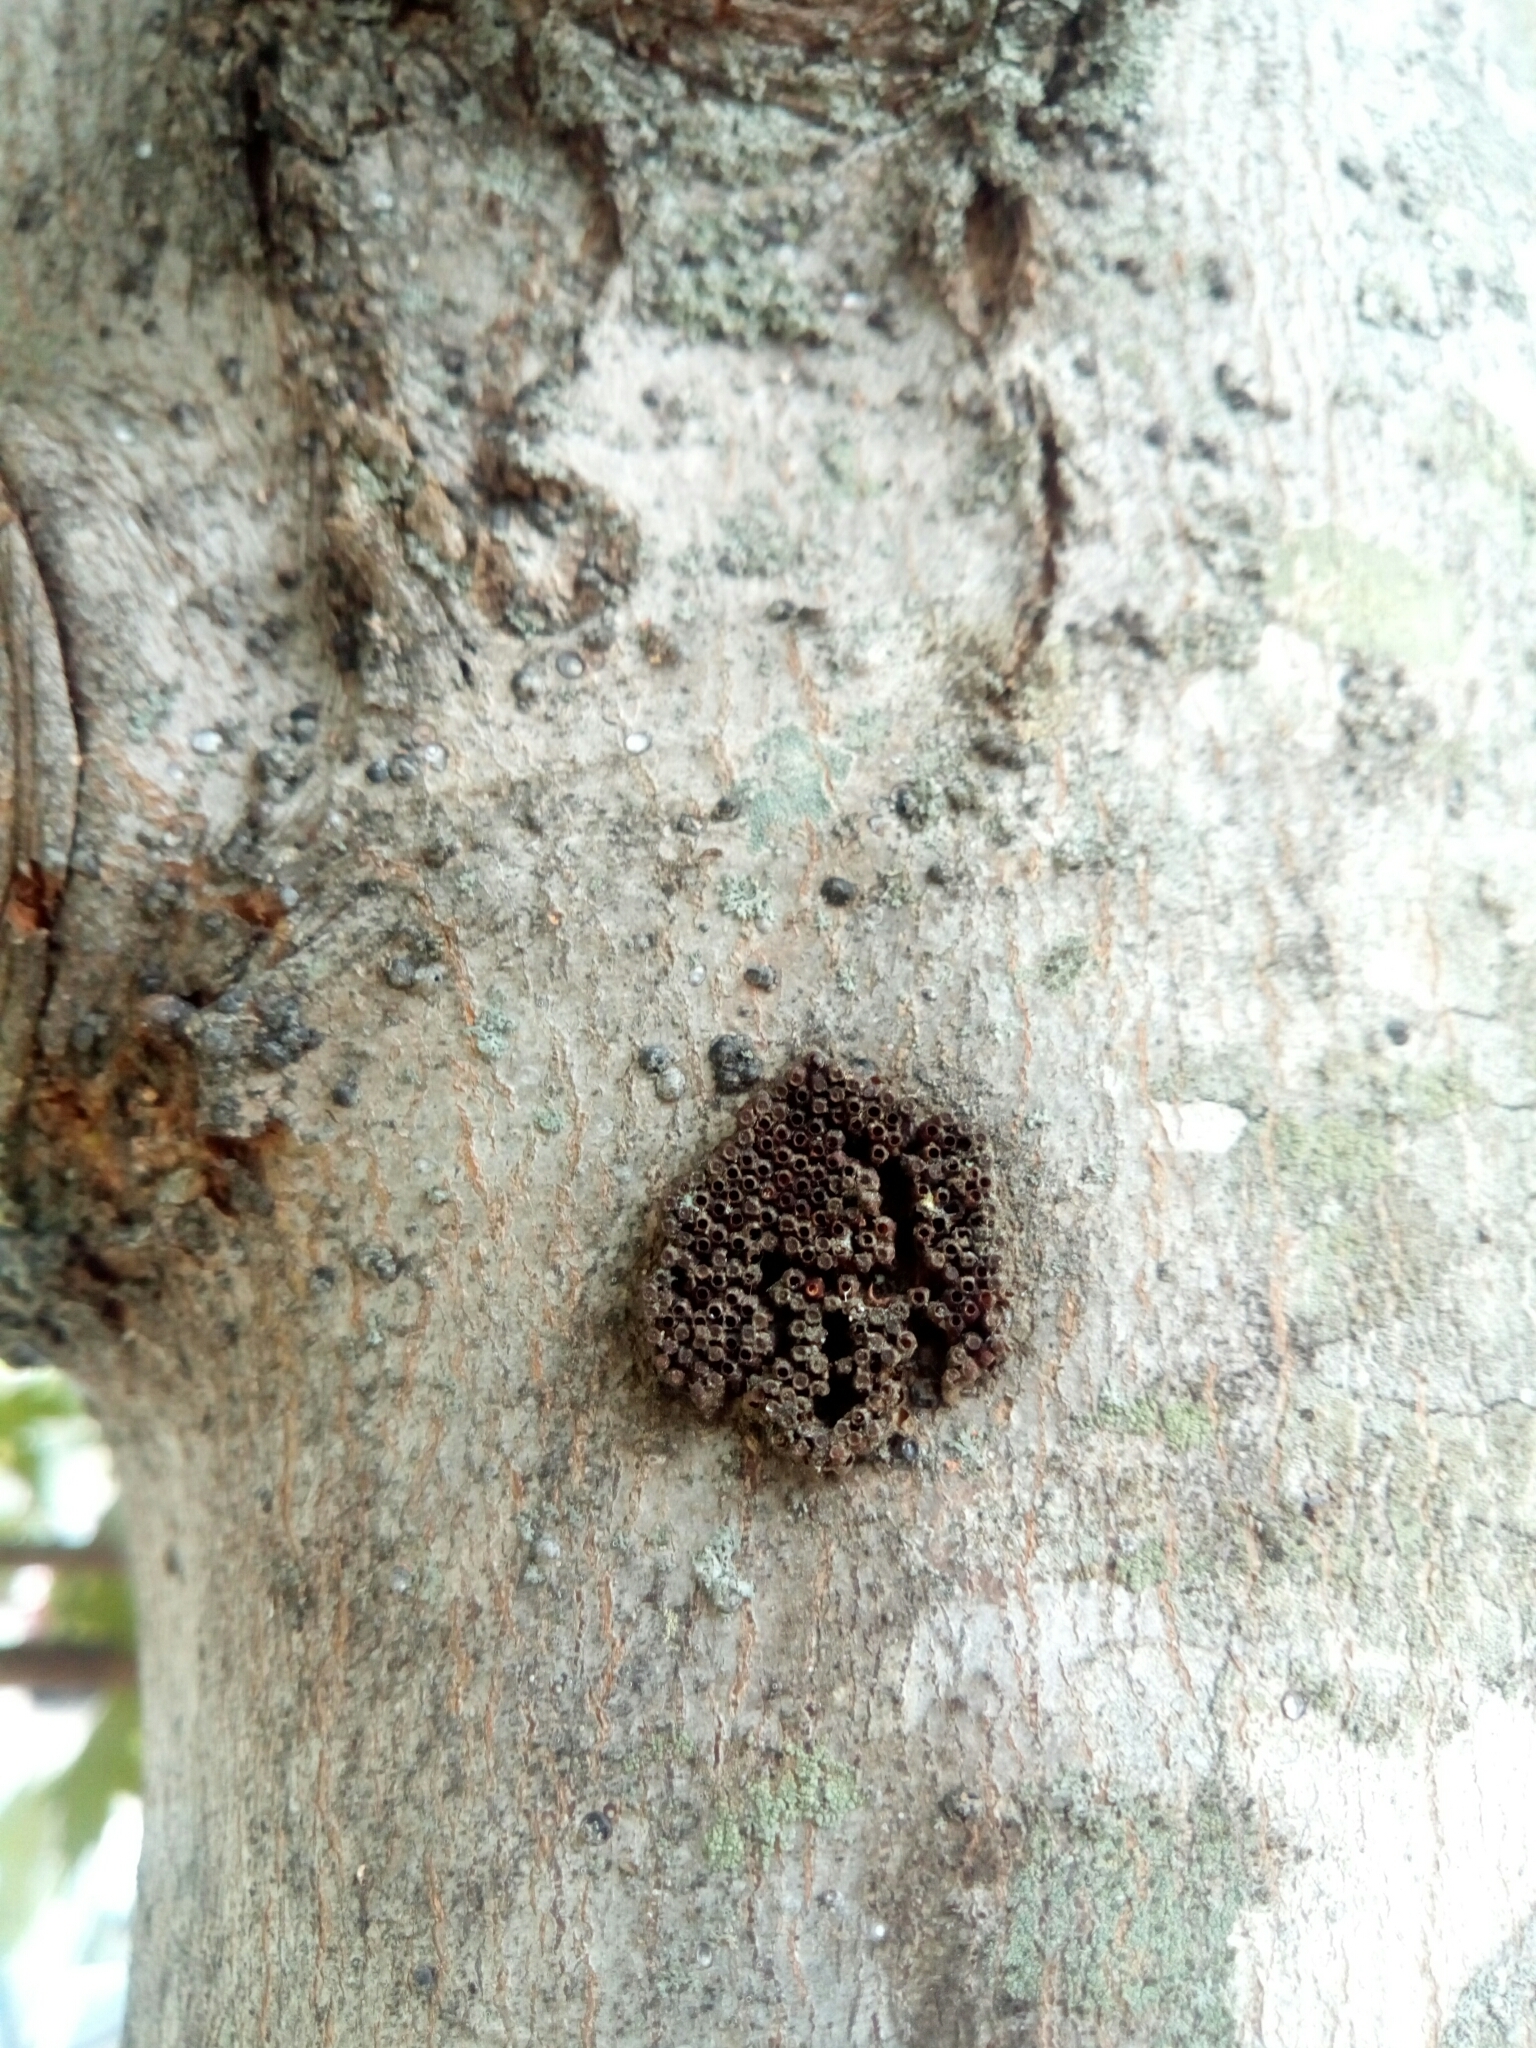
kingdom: Animalia
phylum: Arthropoda
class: Insecta
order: Hemiptera
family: Reduviidae
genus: Arilus
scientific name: Arilus cristatus
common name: North american wheel bug
